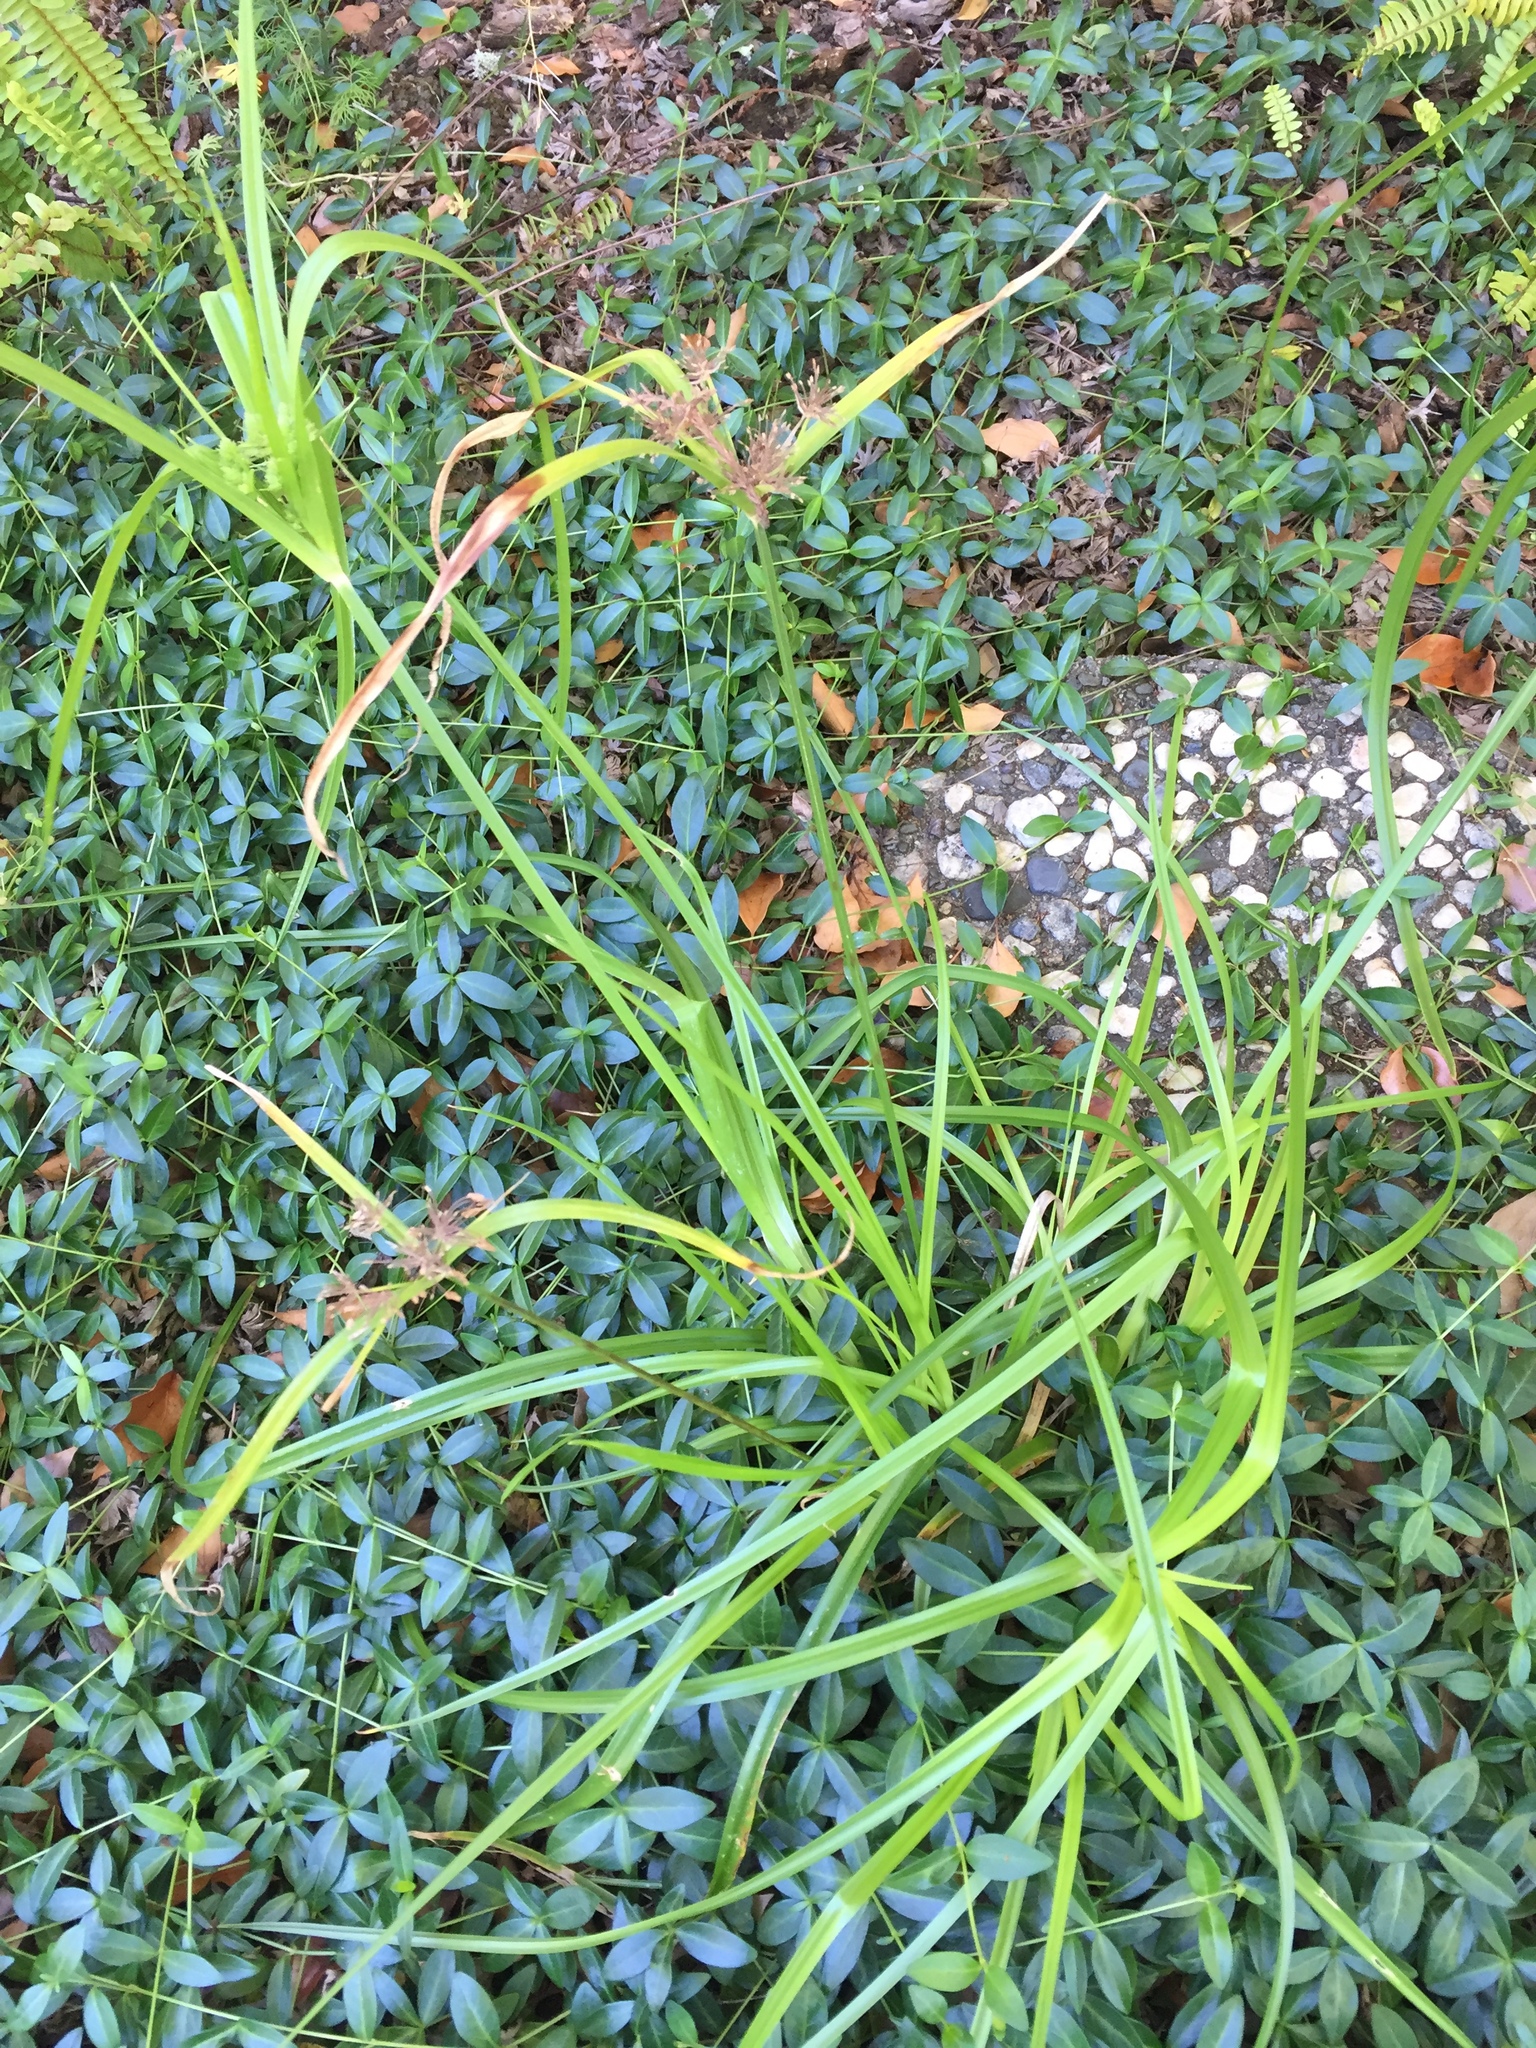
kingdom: Plantae
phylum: Tracheophyta
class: Liliopsida
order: Poales
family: Cyperaceae
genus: Cyperus
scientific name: Cyperus eragrostis
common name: Tall flatsedge
